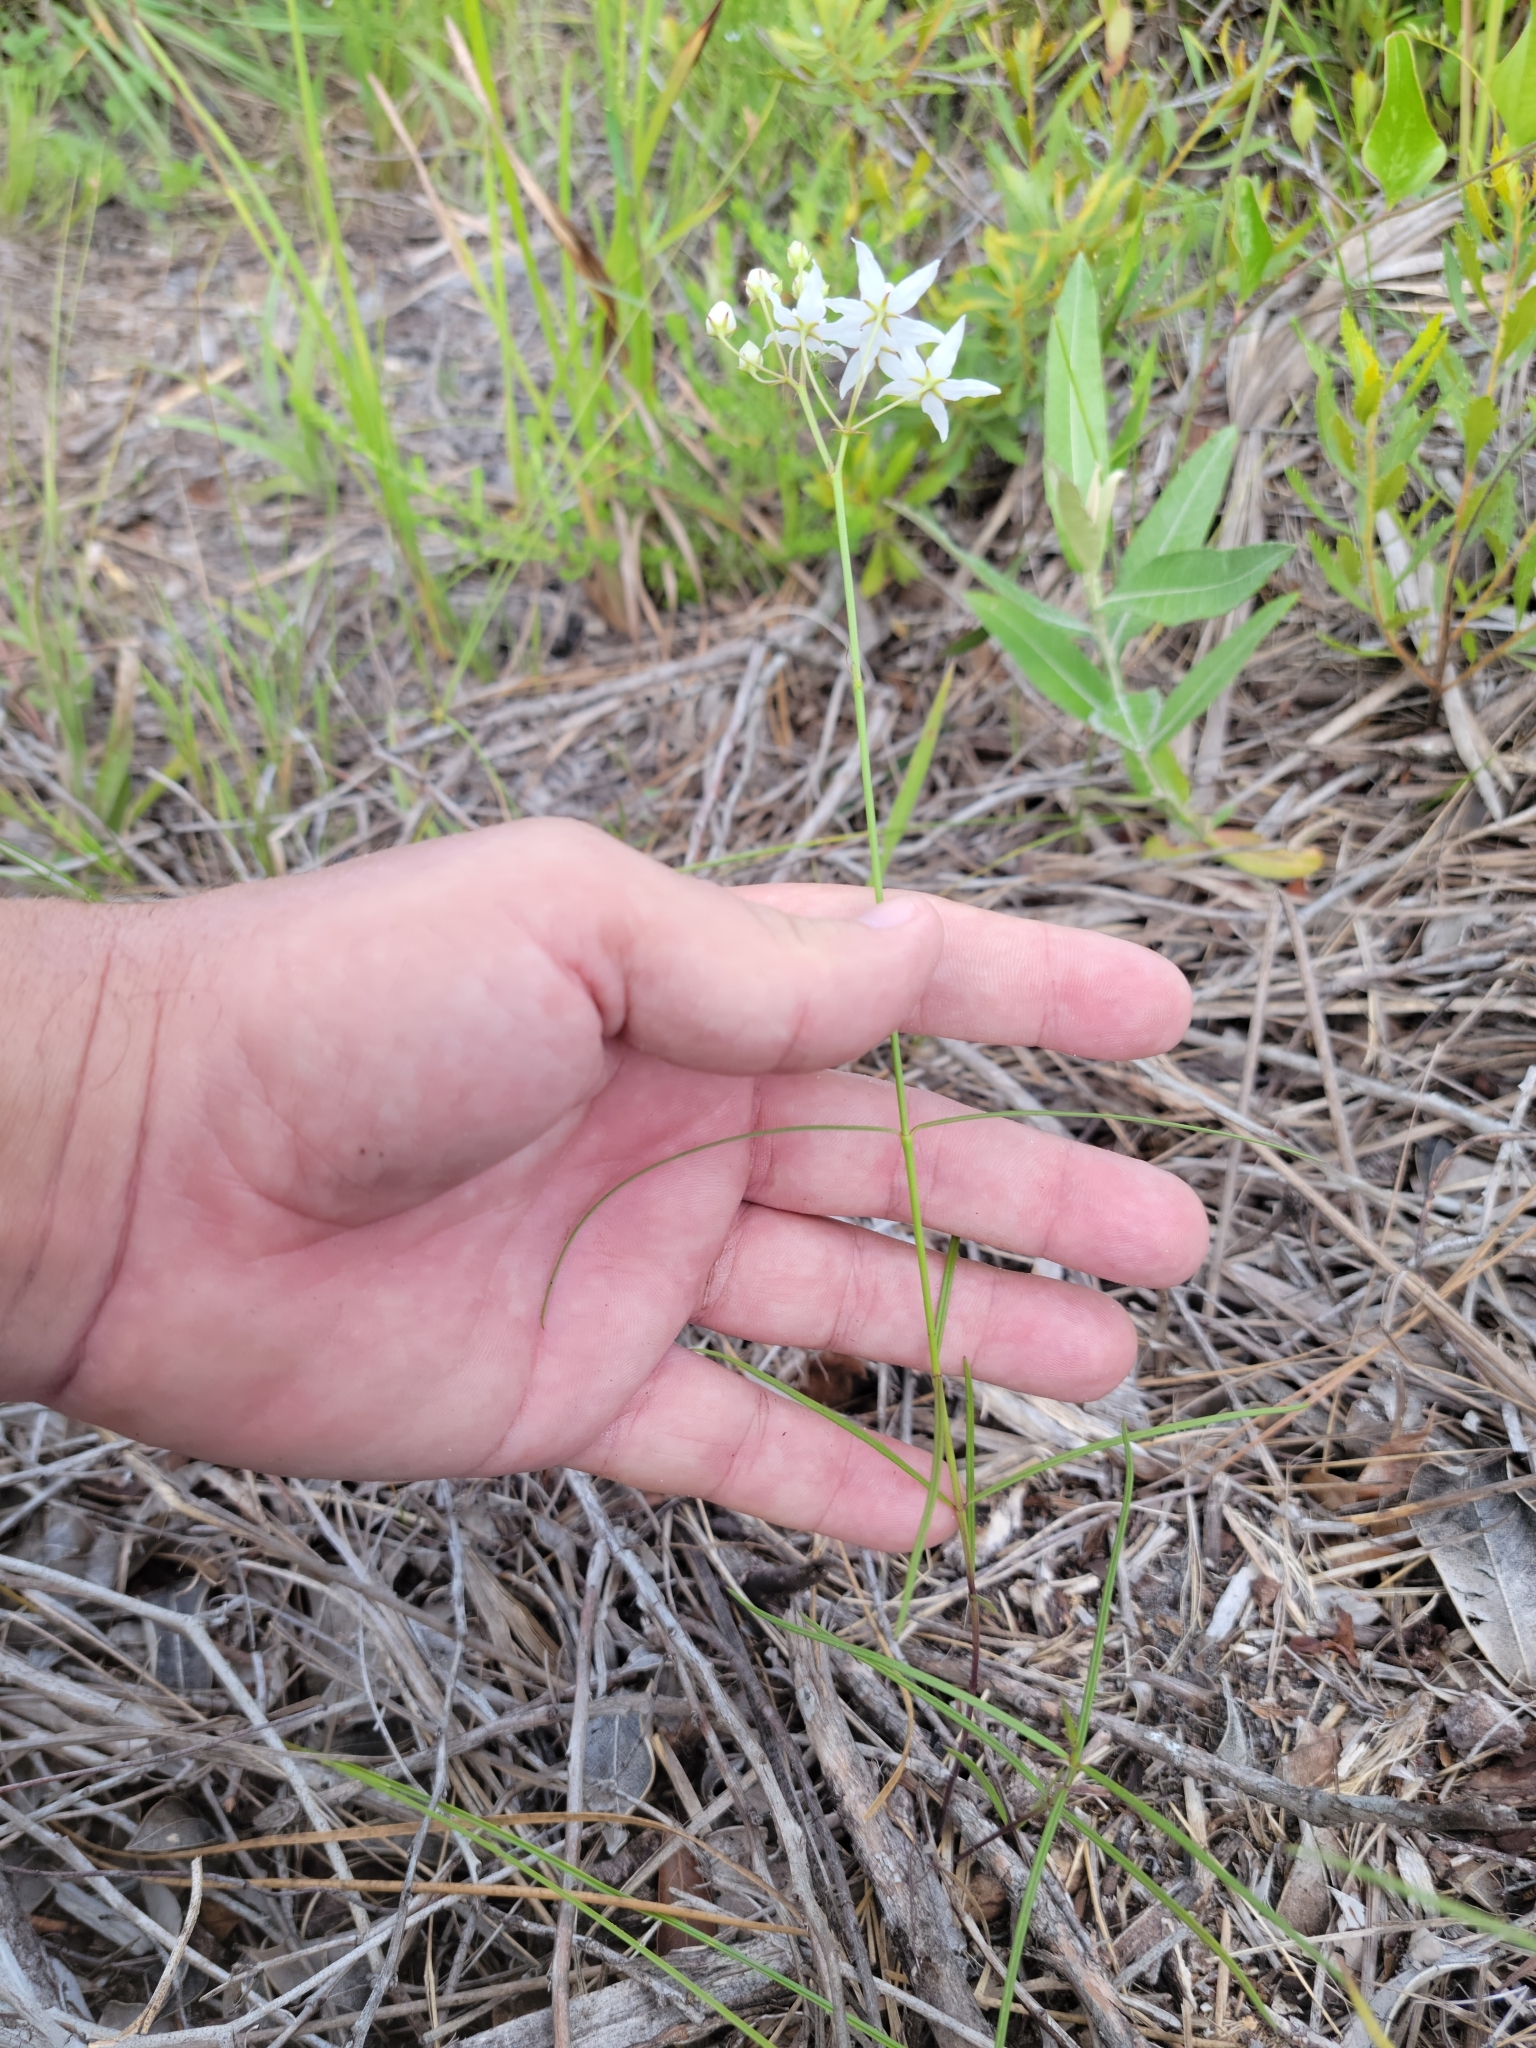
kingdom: Plantae
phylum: Tracheophyta
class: Magnoliopsida
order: Gentianales
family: Apocynaceae
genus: Asclepias
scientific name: Asclepias feayi
